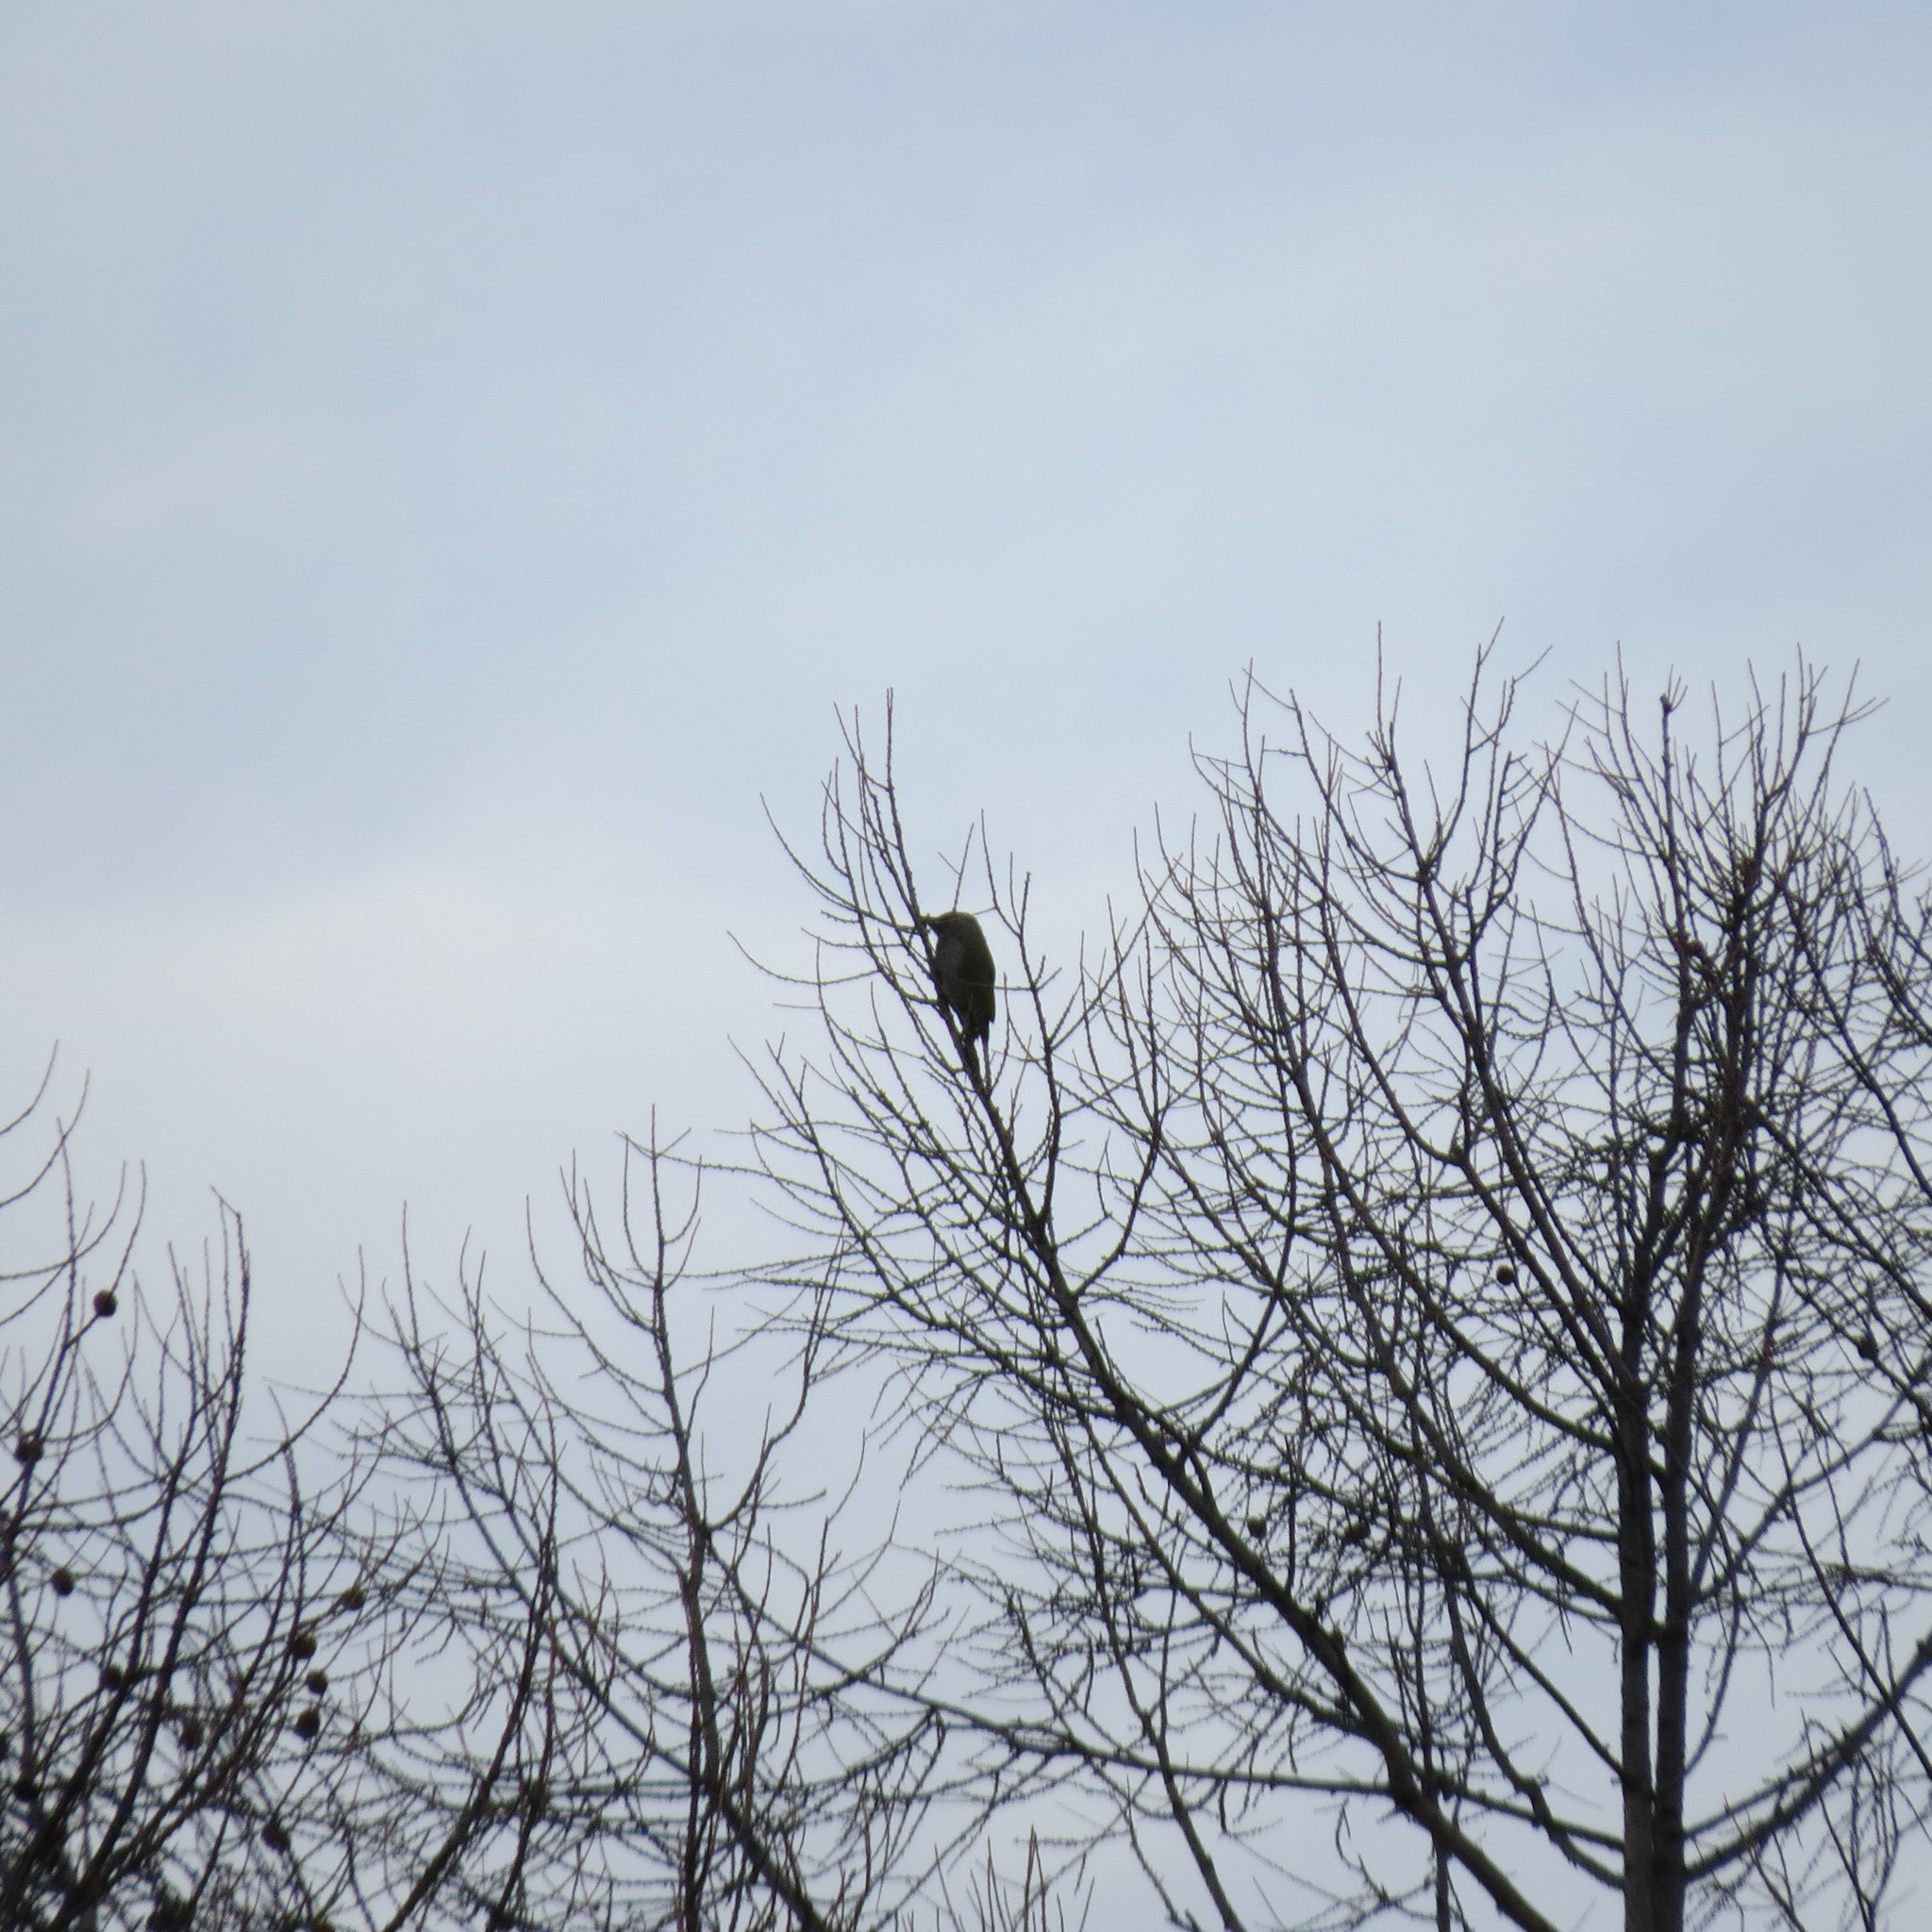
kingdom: Animalia
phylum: Chordata
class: Aves
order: Piciformes
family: Picidae
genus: Picus
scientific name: Picus canus
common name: Grey-headed woodpecker
